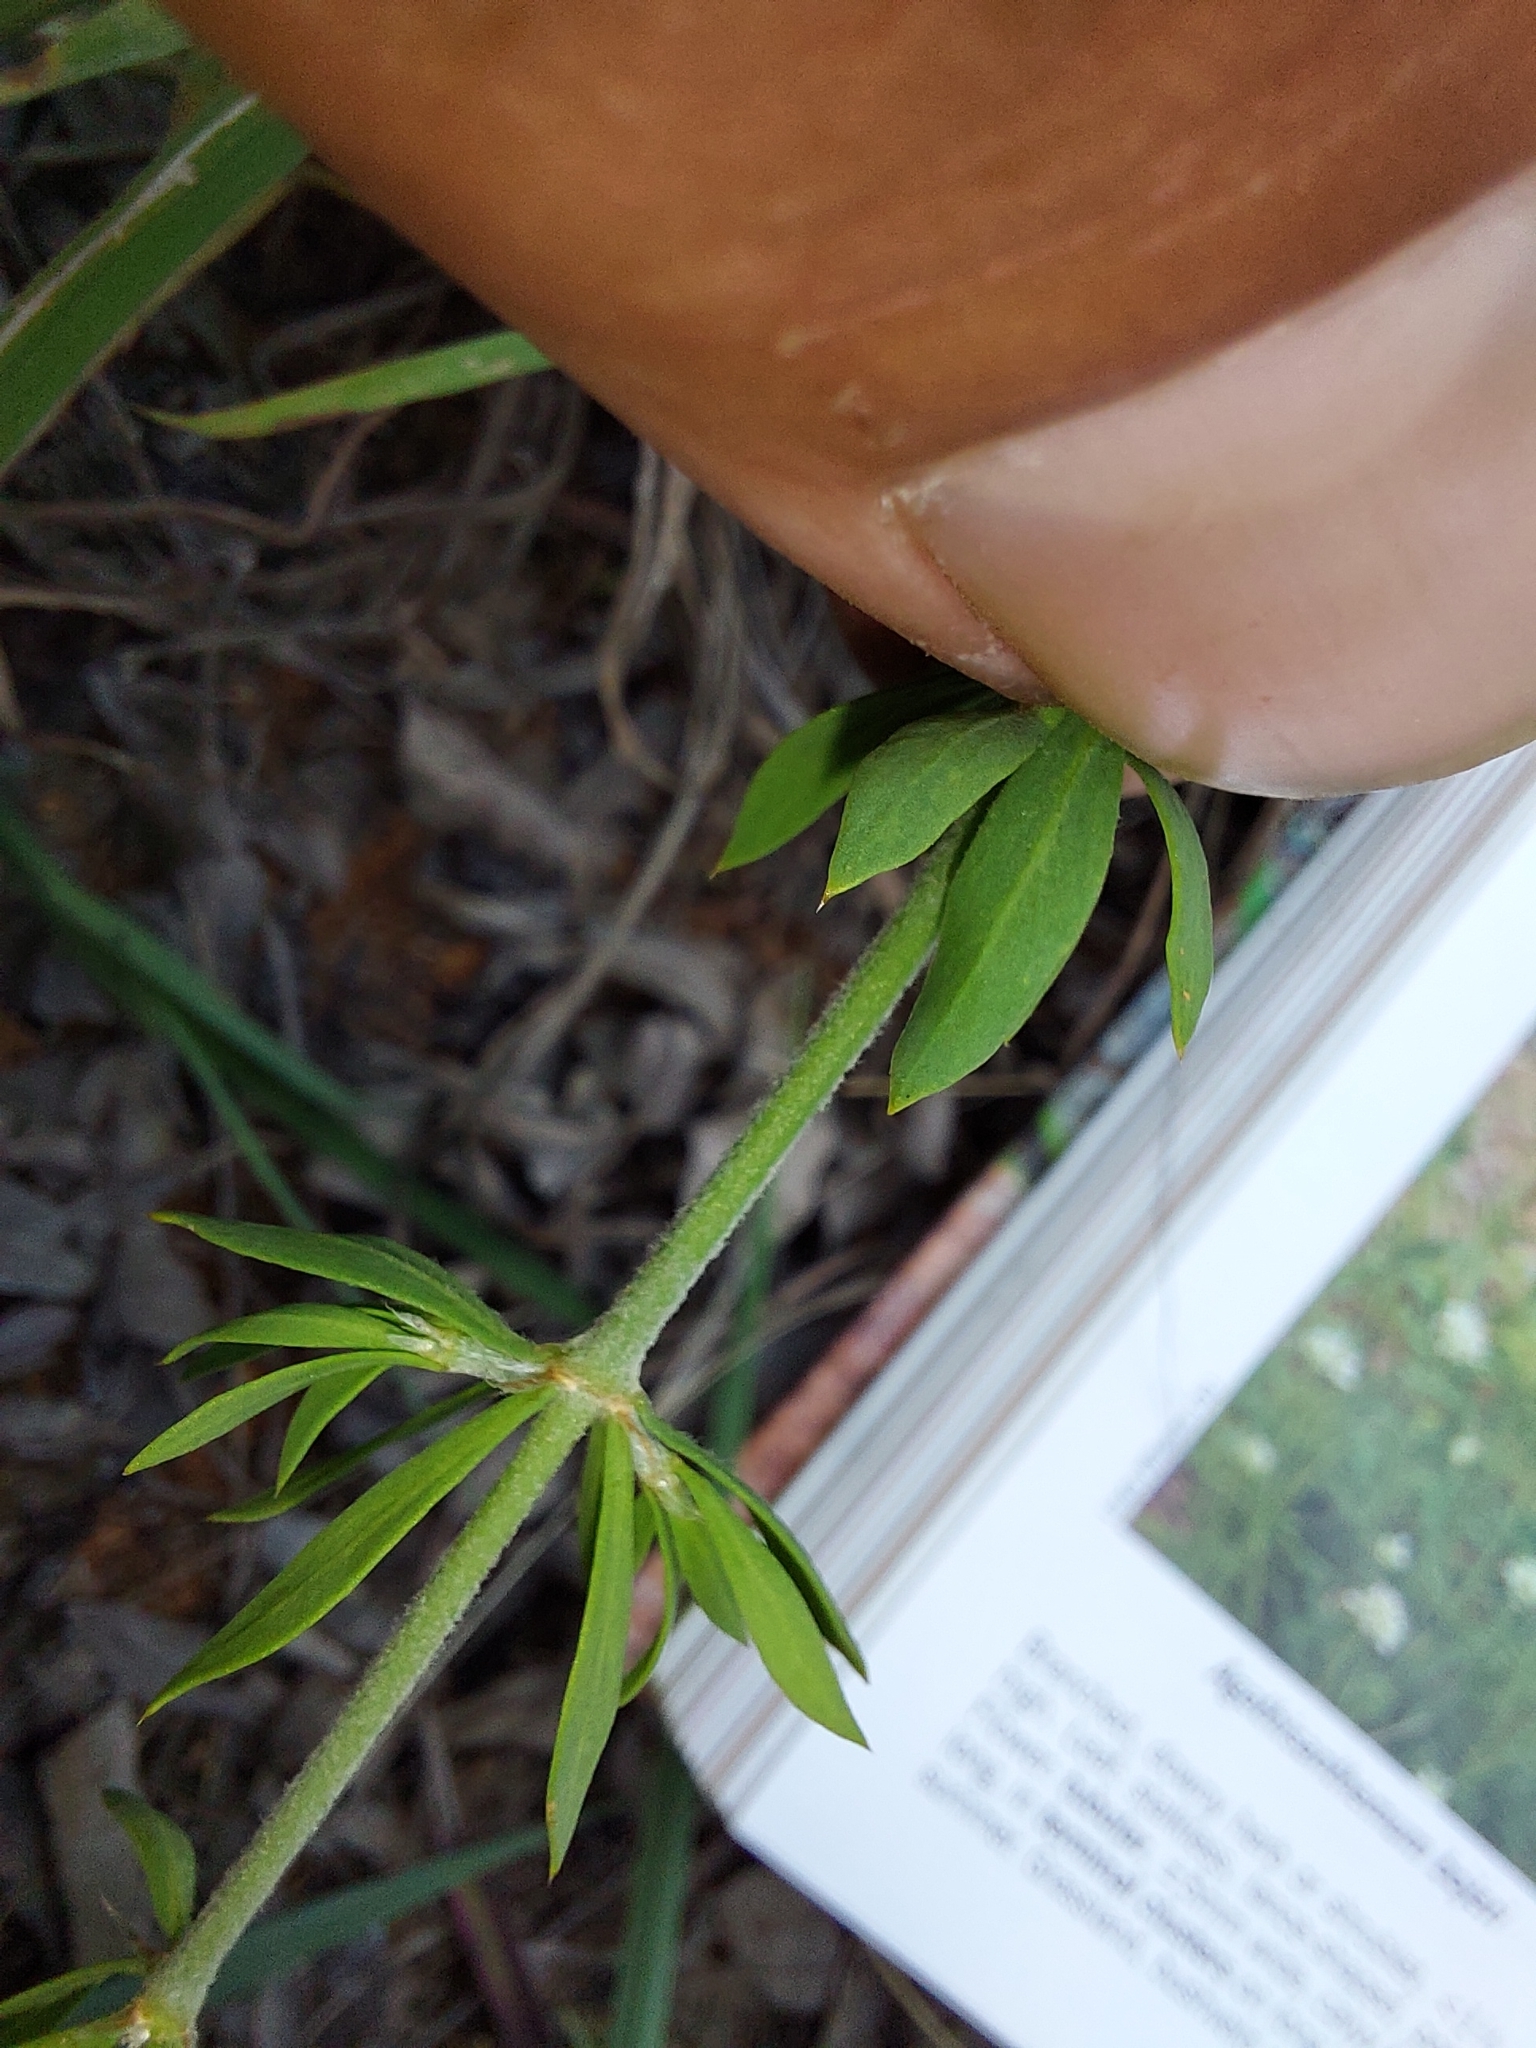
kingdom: Plantae
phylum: Tracheophyta
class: Magnoliopsida
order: Caryophyllales
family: Caryophyllaceae
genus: Pollichia
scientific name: Pollichia campestris
